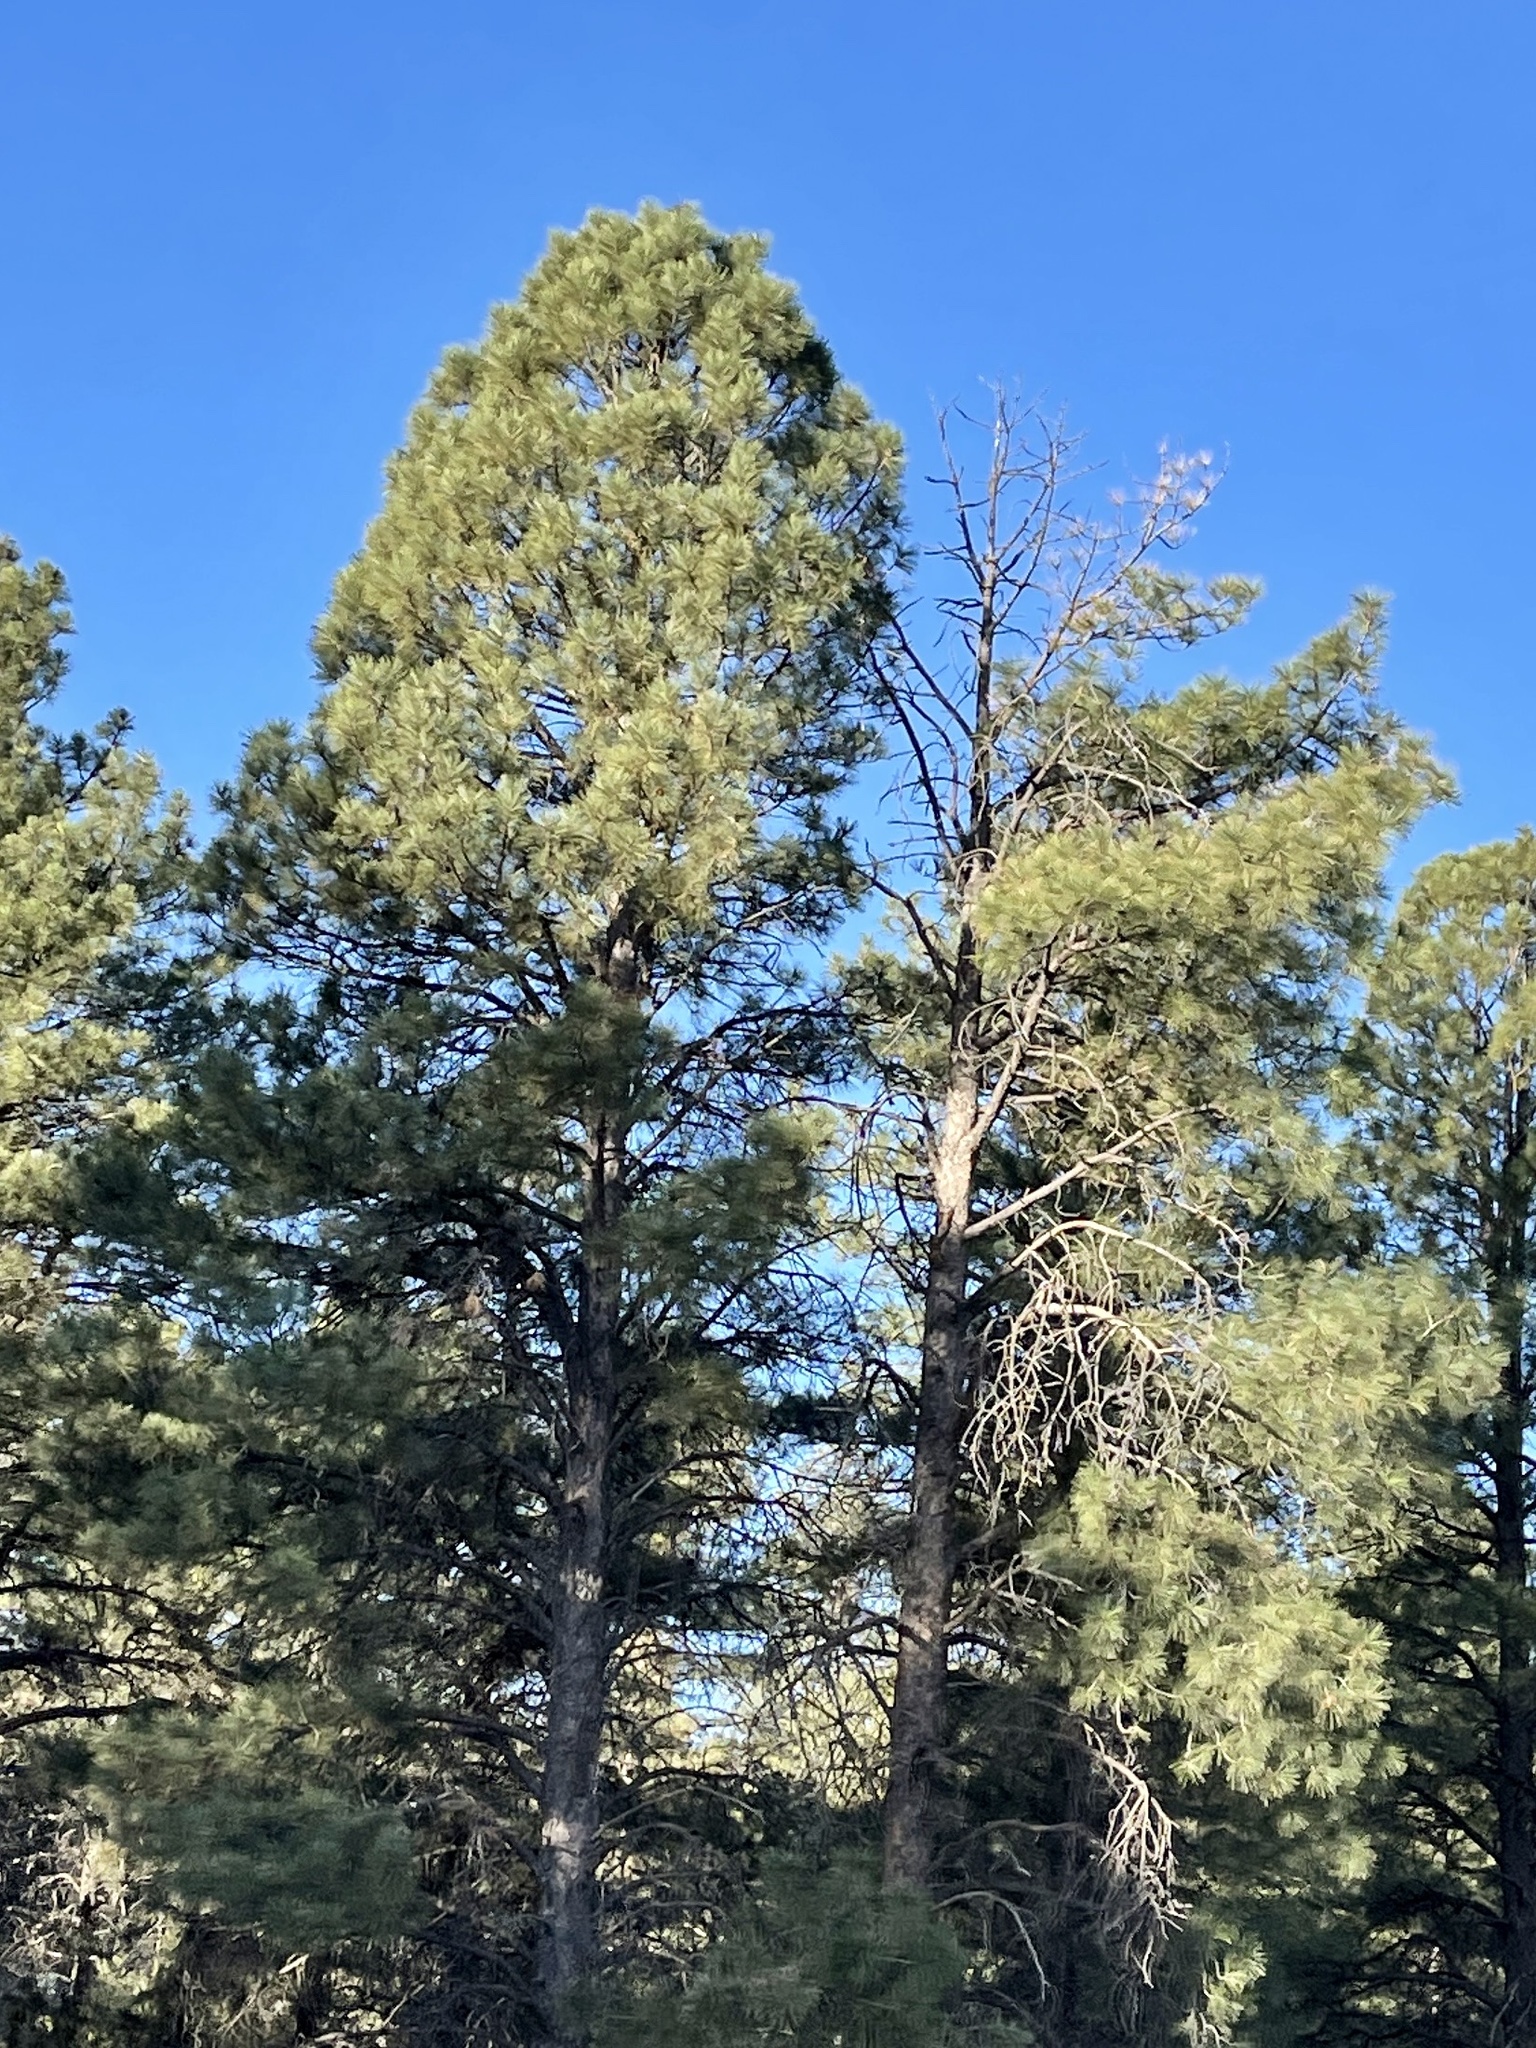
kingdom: Plantae
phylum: Tracheophyta
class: Pinopsida
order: Pinales
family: Pinaceae
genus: Pinus
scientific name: Pinus ponderosa
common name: Western yellow-pine
